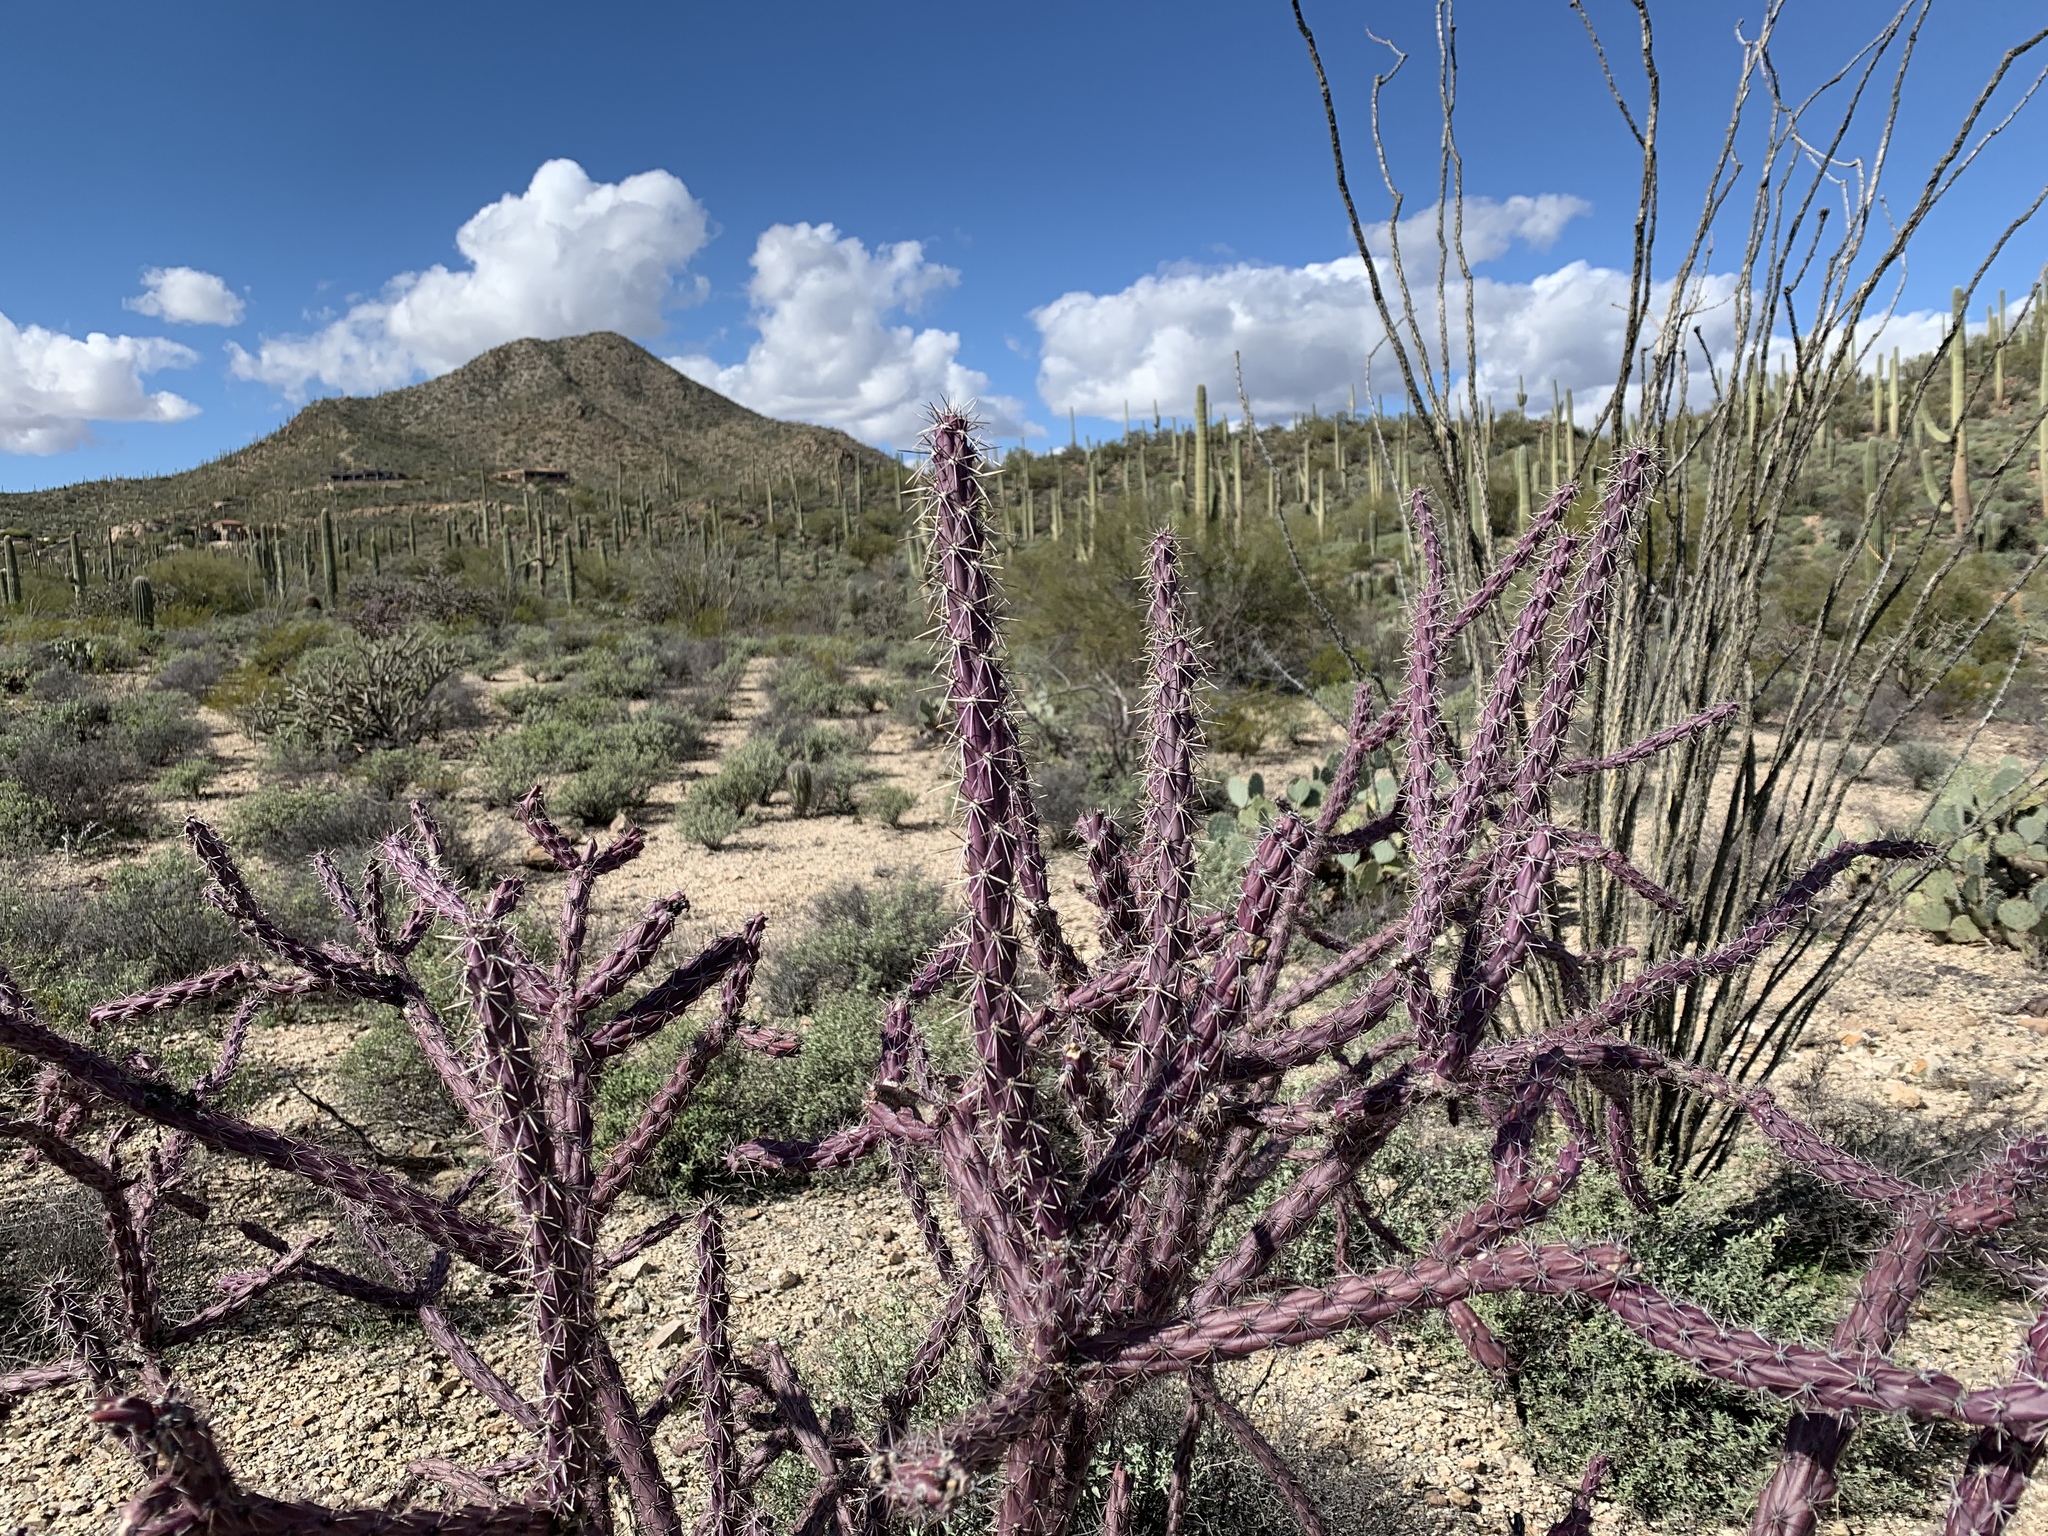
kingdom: Plantae
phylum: Tracheophyta
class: Magnoliopsida
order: Caryophyllales
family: Cactaceae
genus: Cylindropuntia
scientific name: Cylindropuntia thurberi
